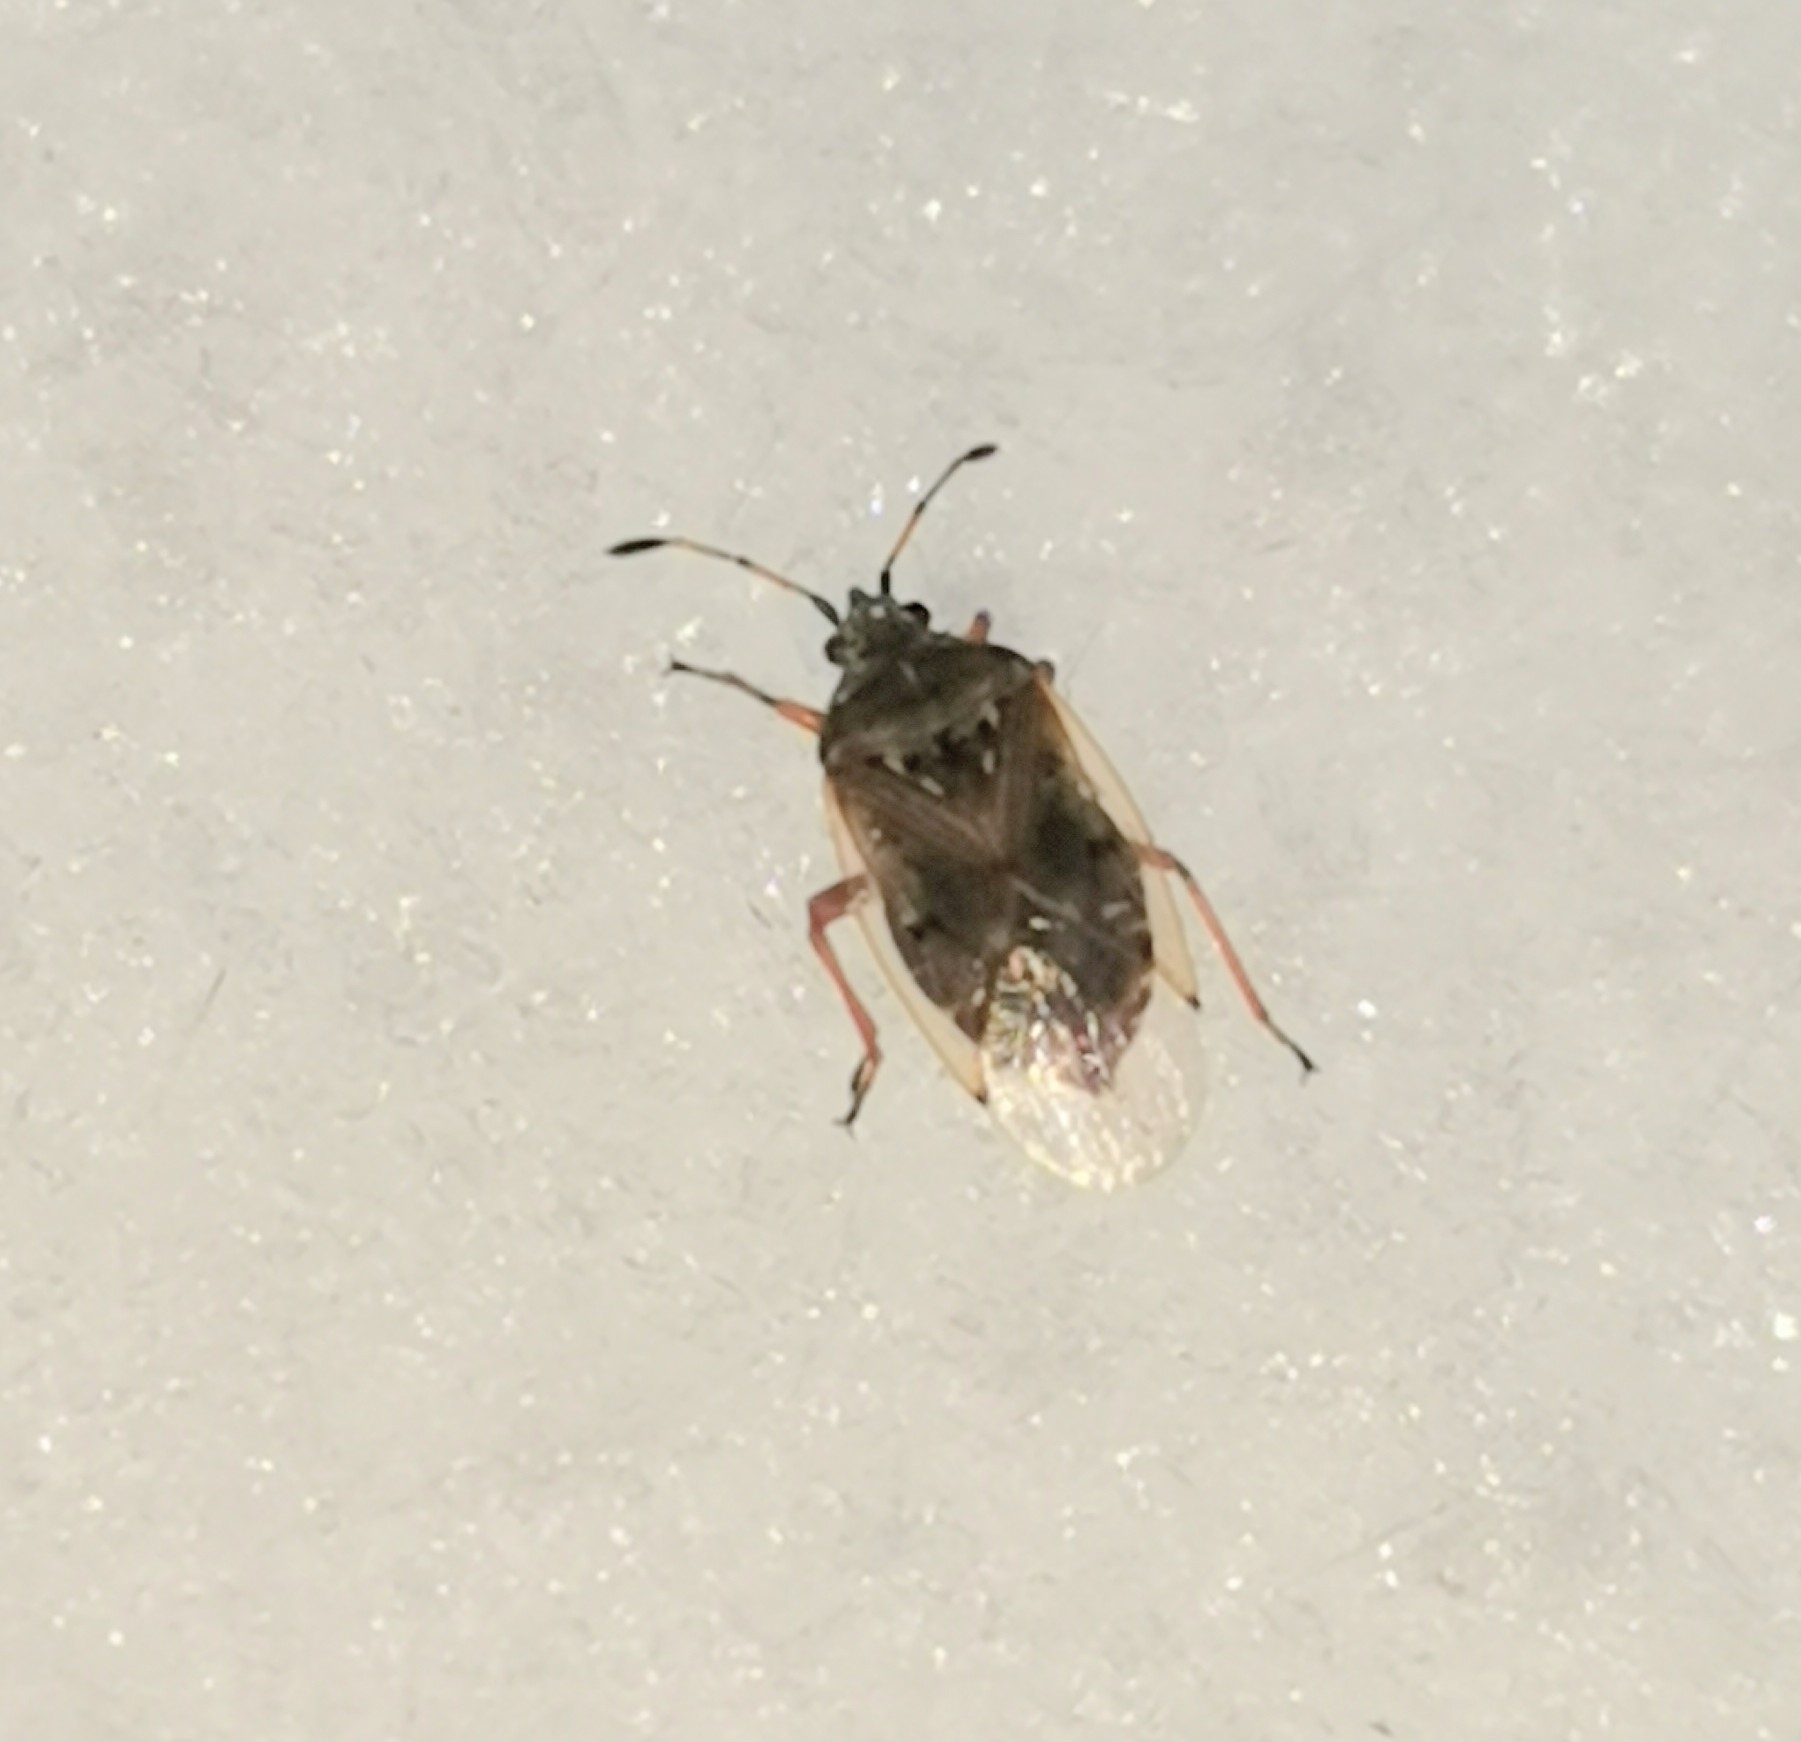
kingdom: Animalia
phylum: Arthropoda
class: Insecta
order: Hemiptera
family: Lygaeidae
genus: Kleidocerys
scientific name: Kleidocerys resedae
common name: Birch catkin bug
